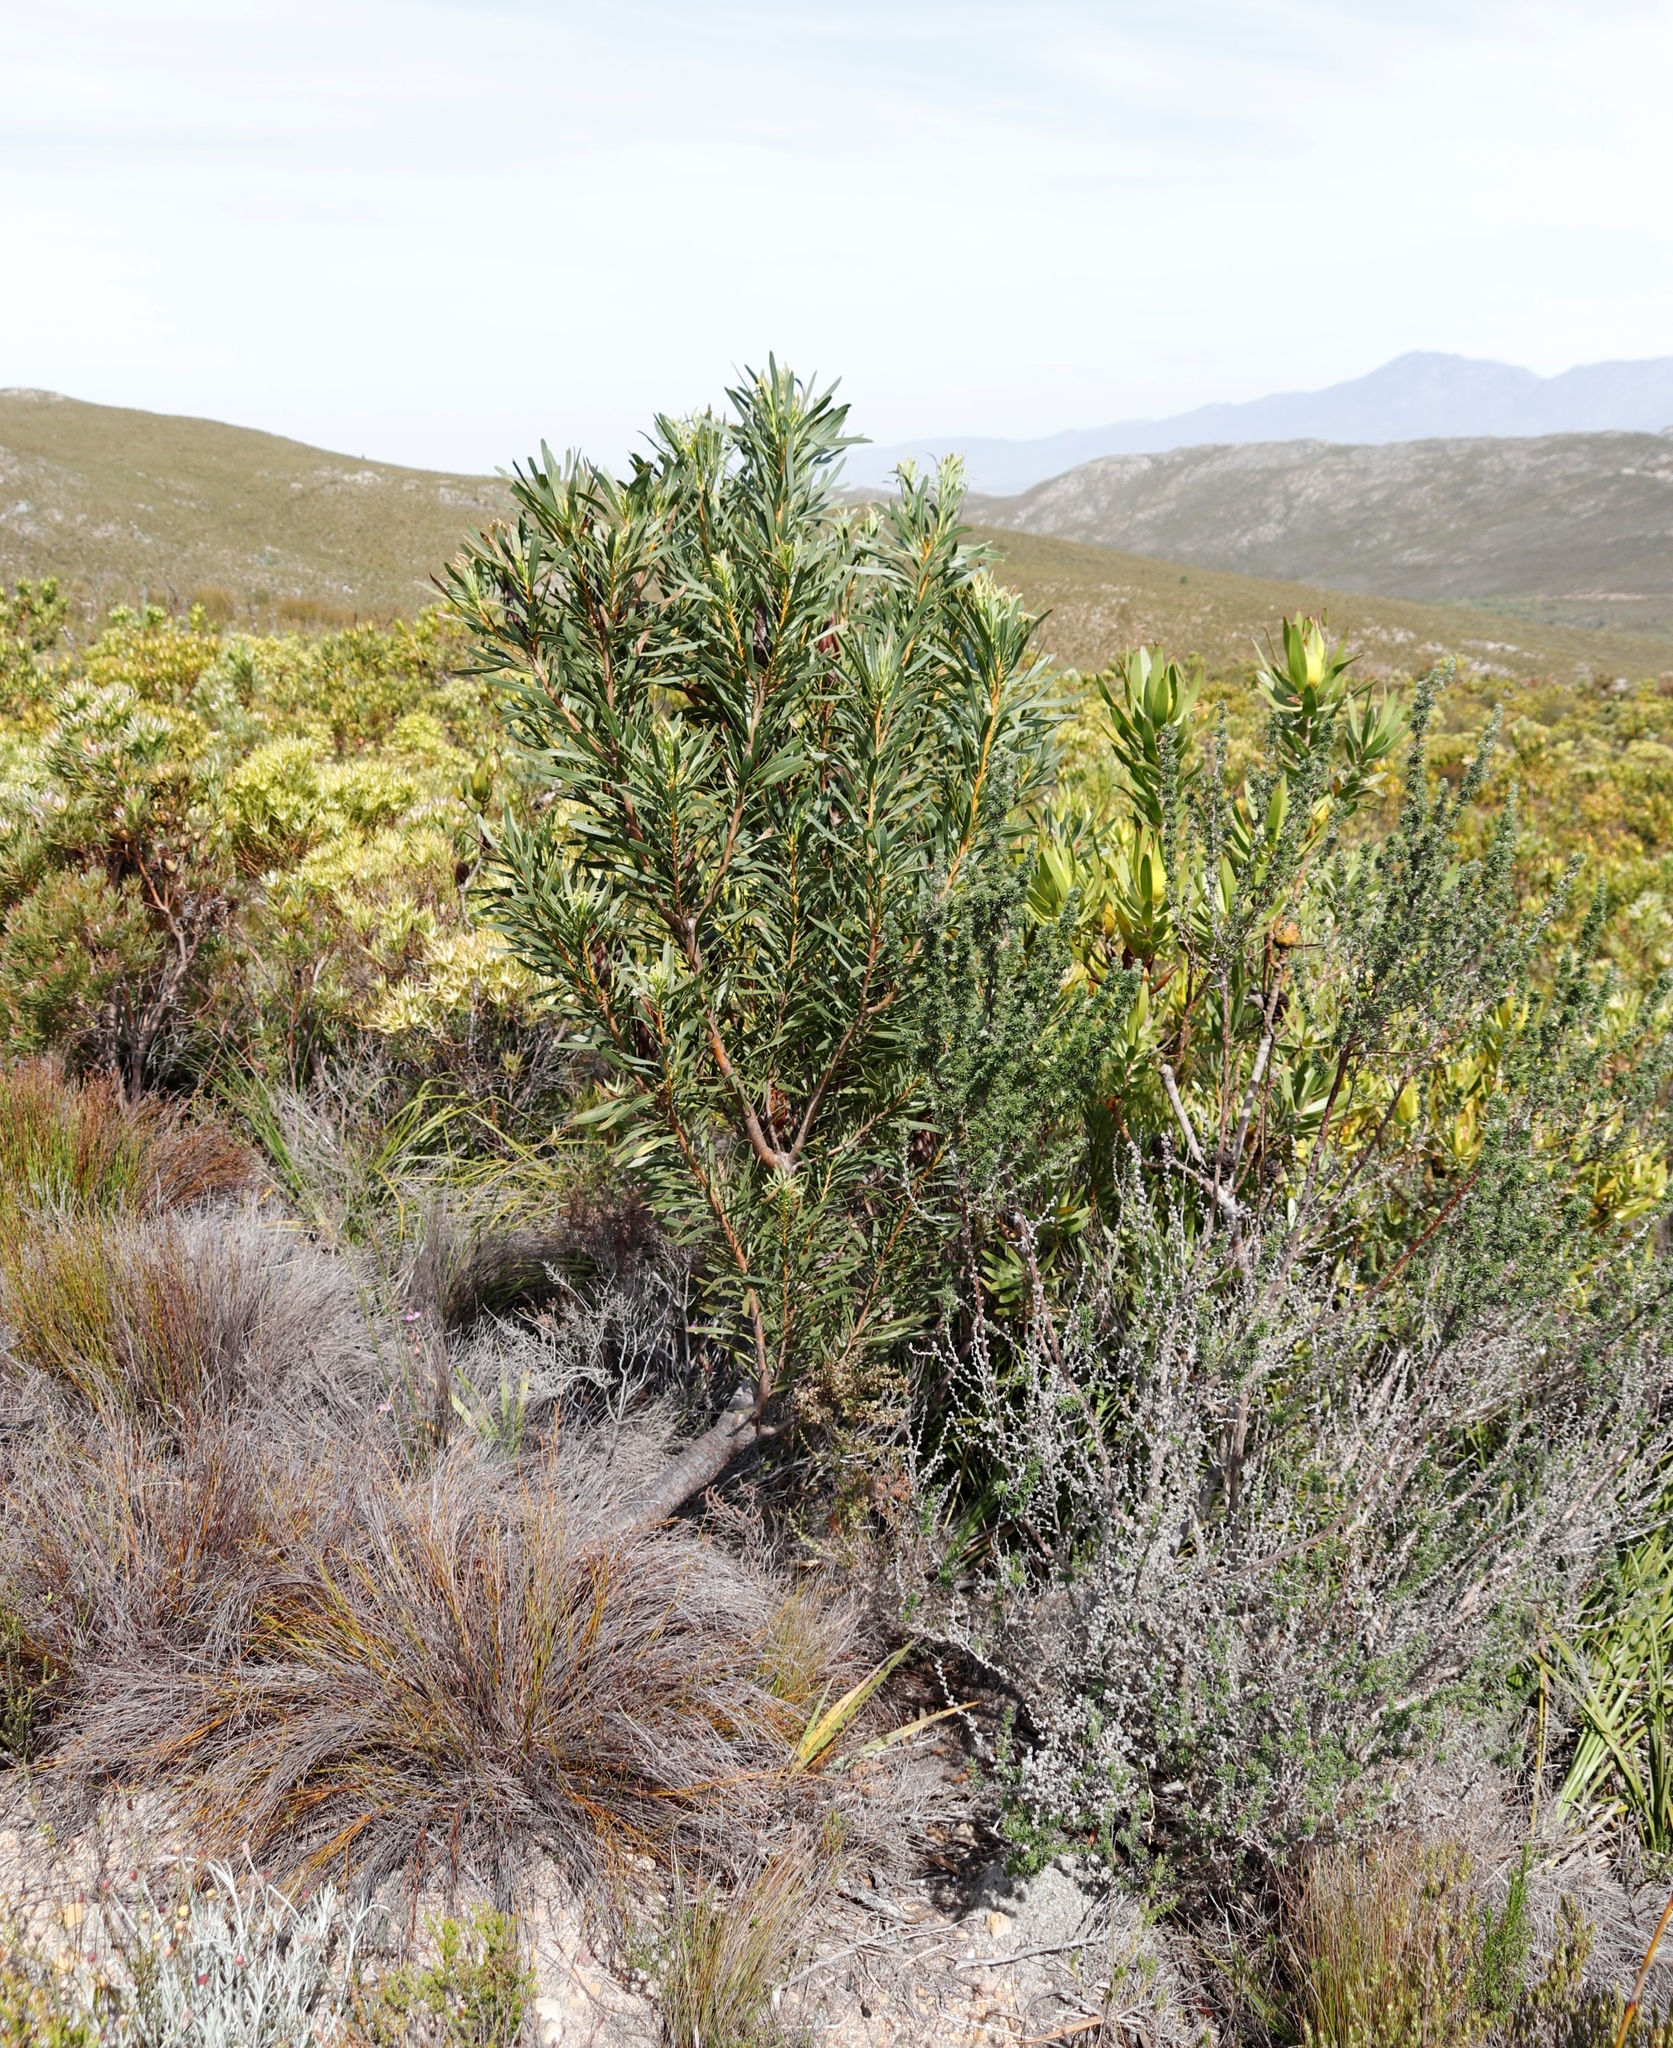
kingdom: Plantae
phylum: Tracheophyta
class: Magnoliopsida
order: Proteales
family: Proteaceae
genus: Protea
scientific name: Protea repens
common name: Sugarbush
